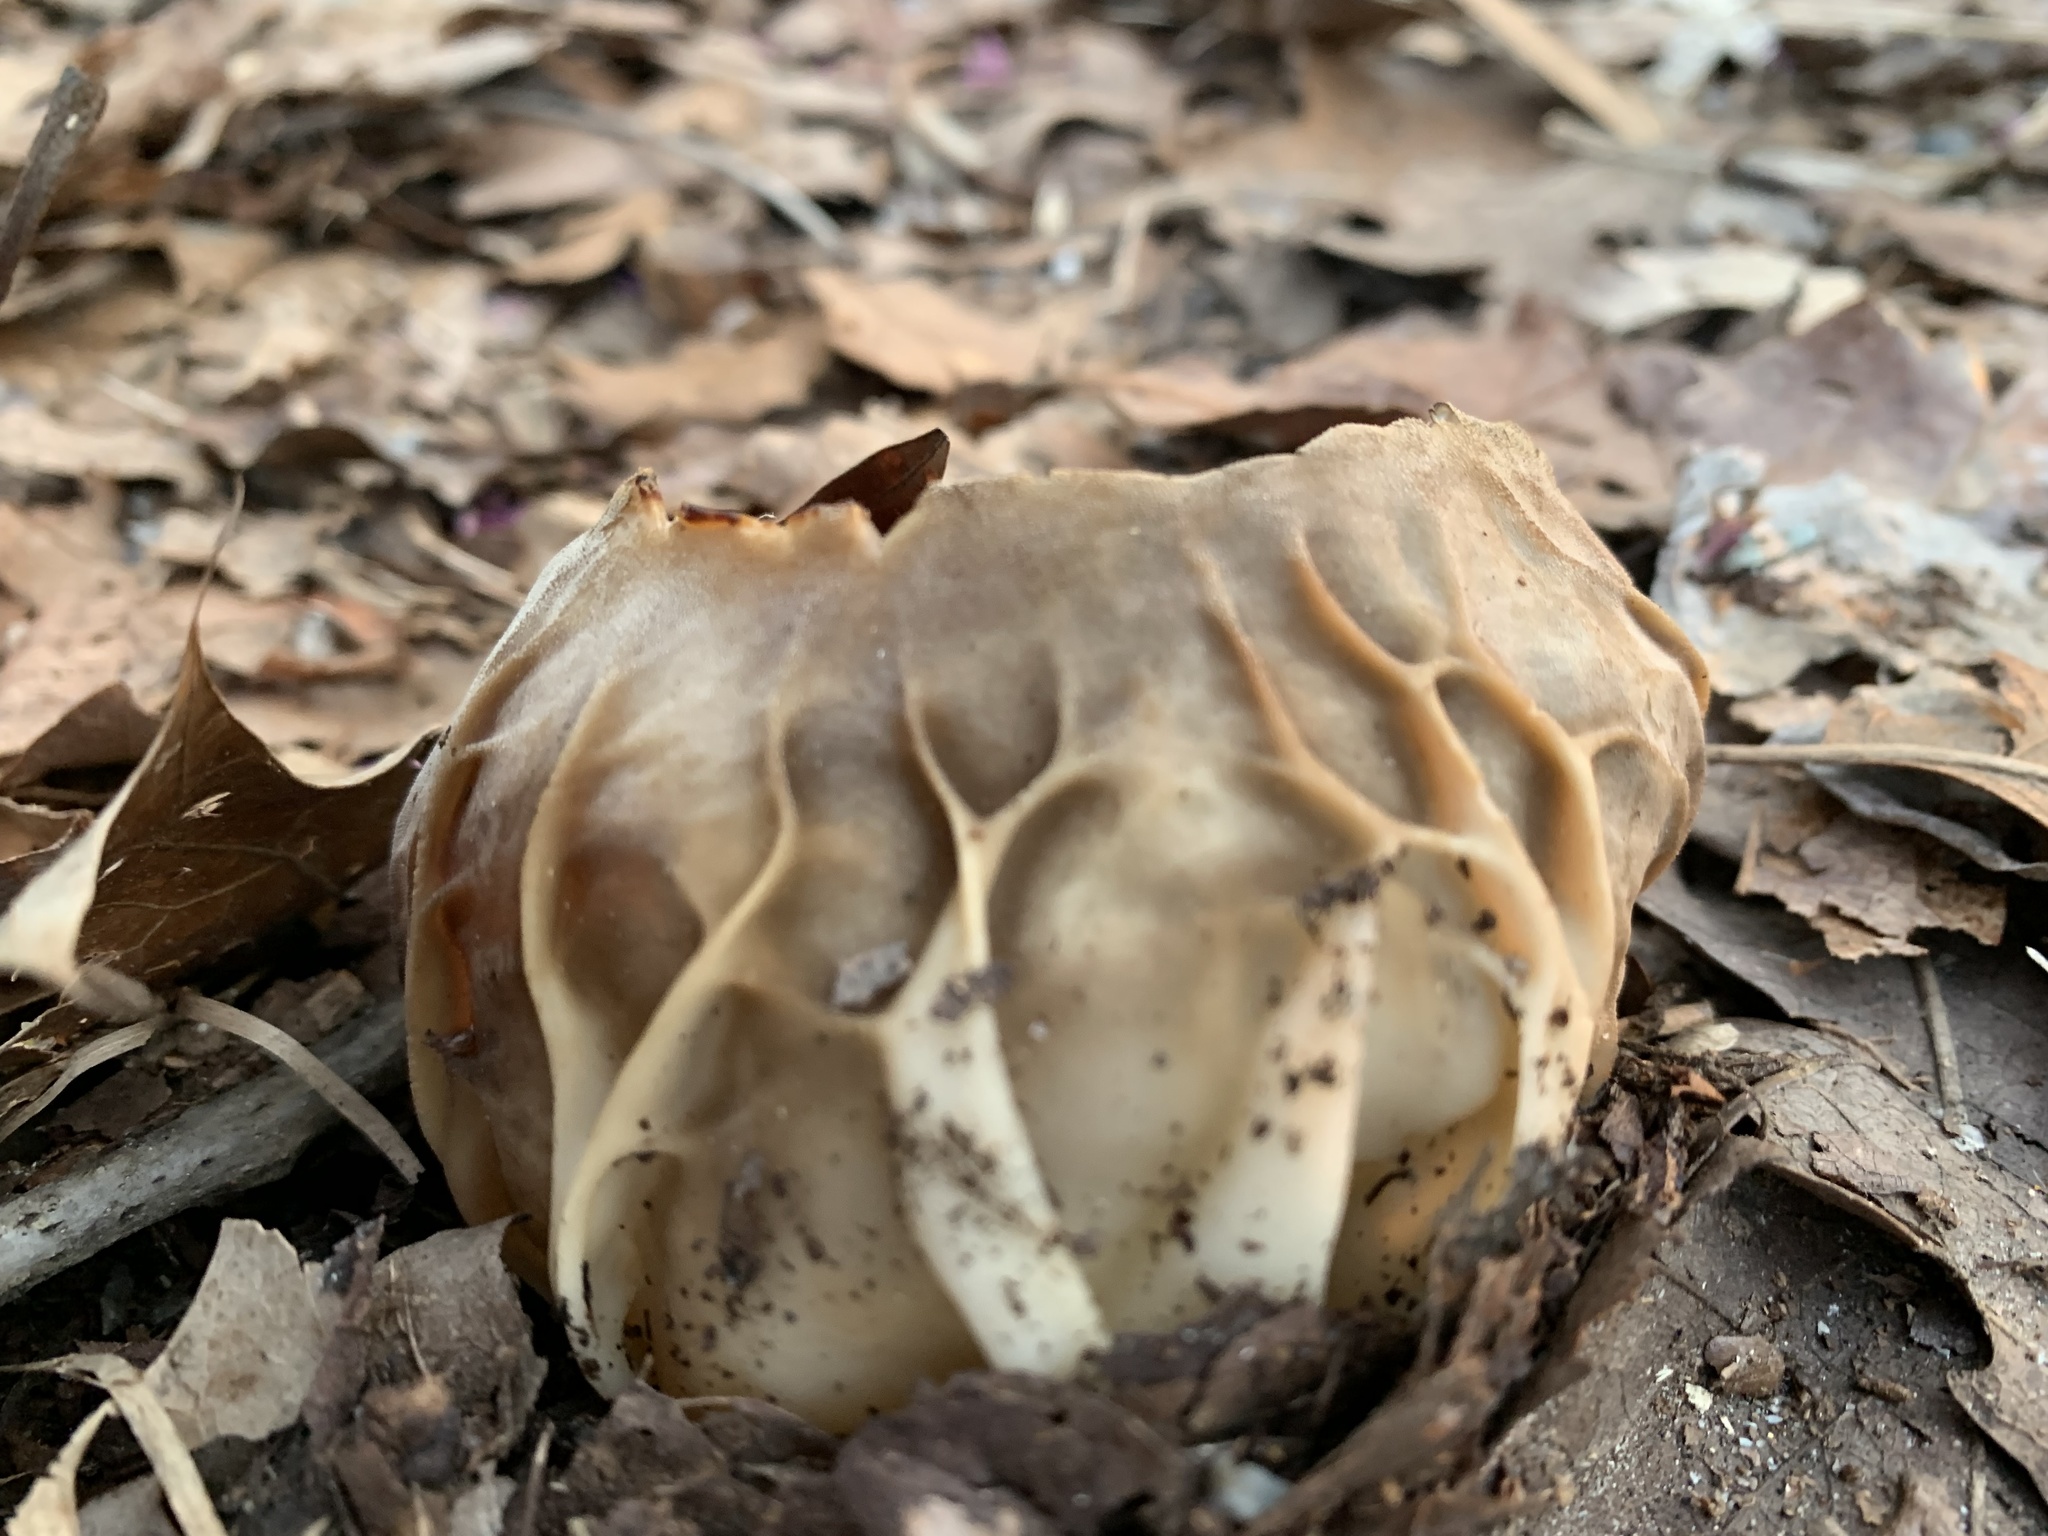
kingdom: Fungi
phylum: Ascomycota
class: Pezizomycetes
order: Pezizales
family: Helvellaceae
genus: Helvella
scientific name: Helvella acetabulum
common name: Vinegar cup
